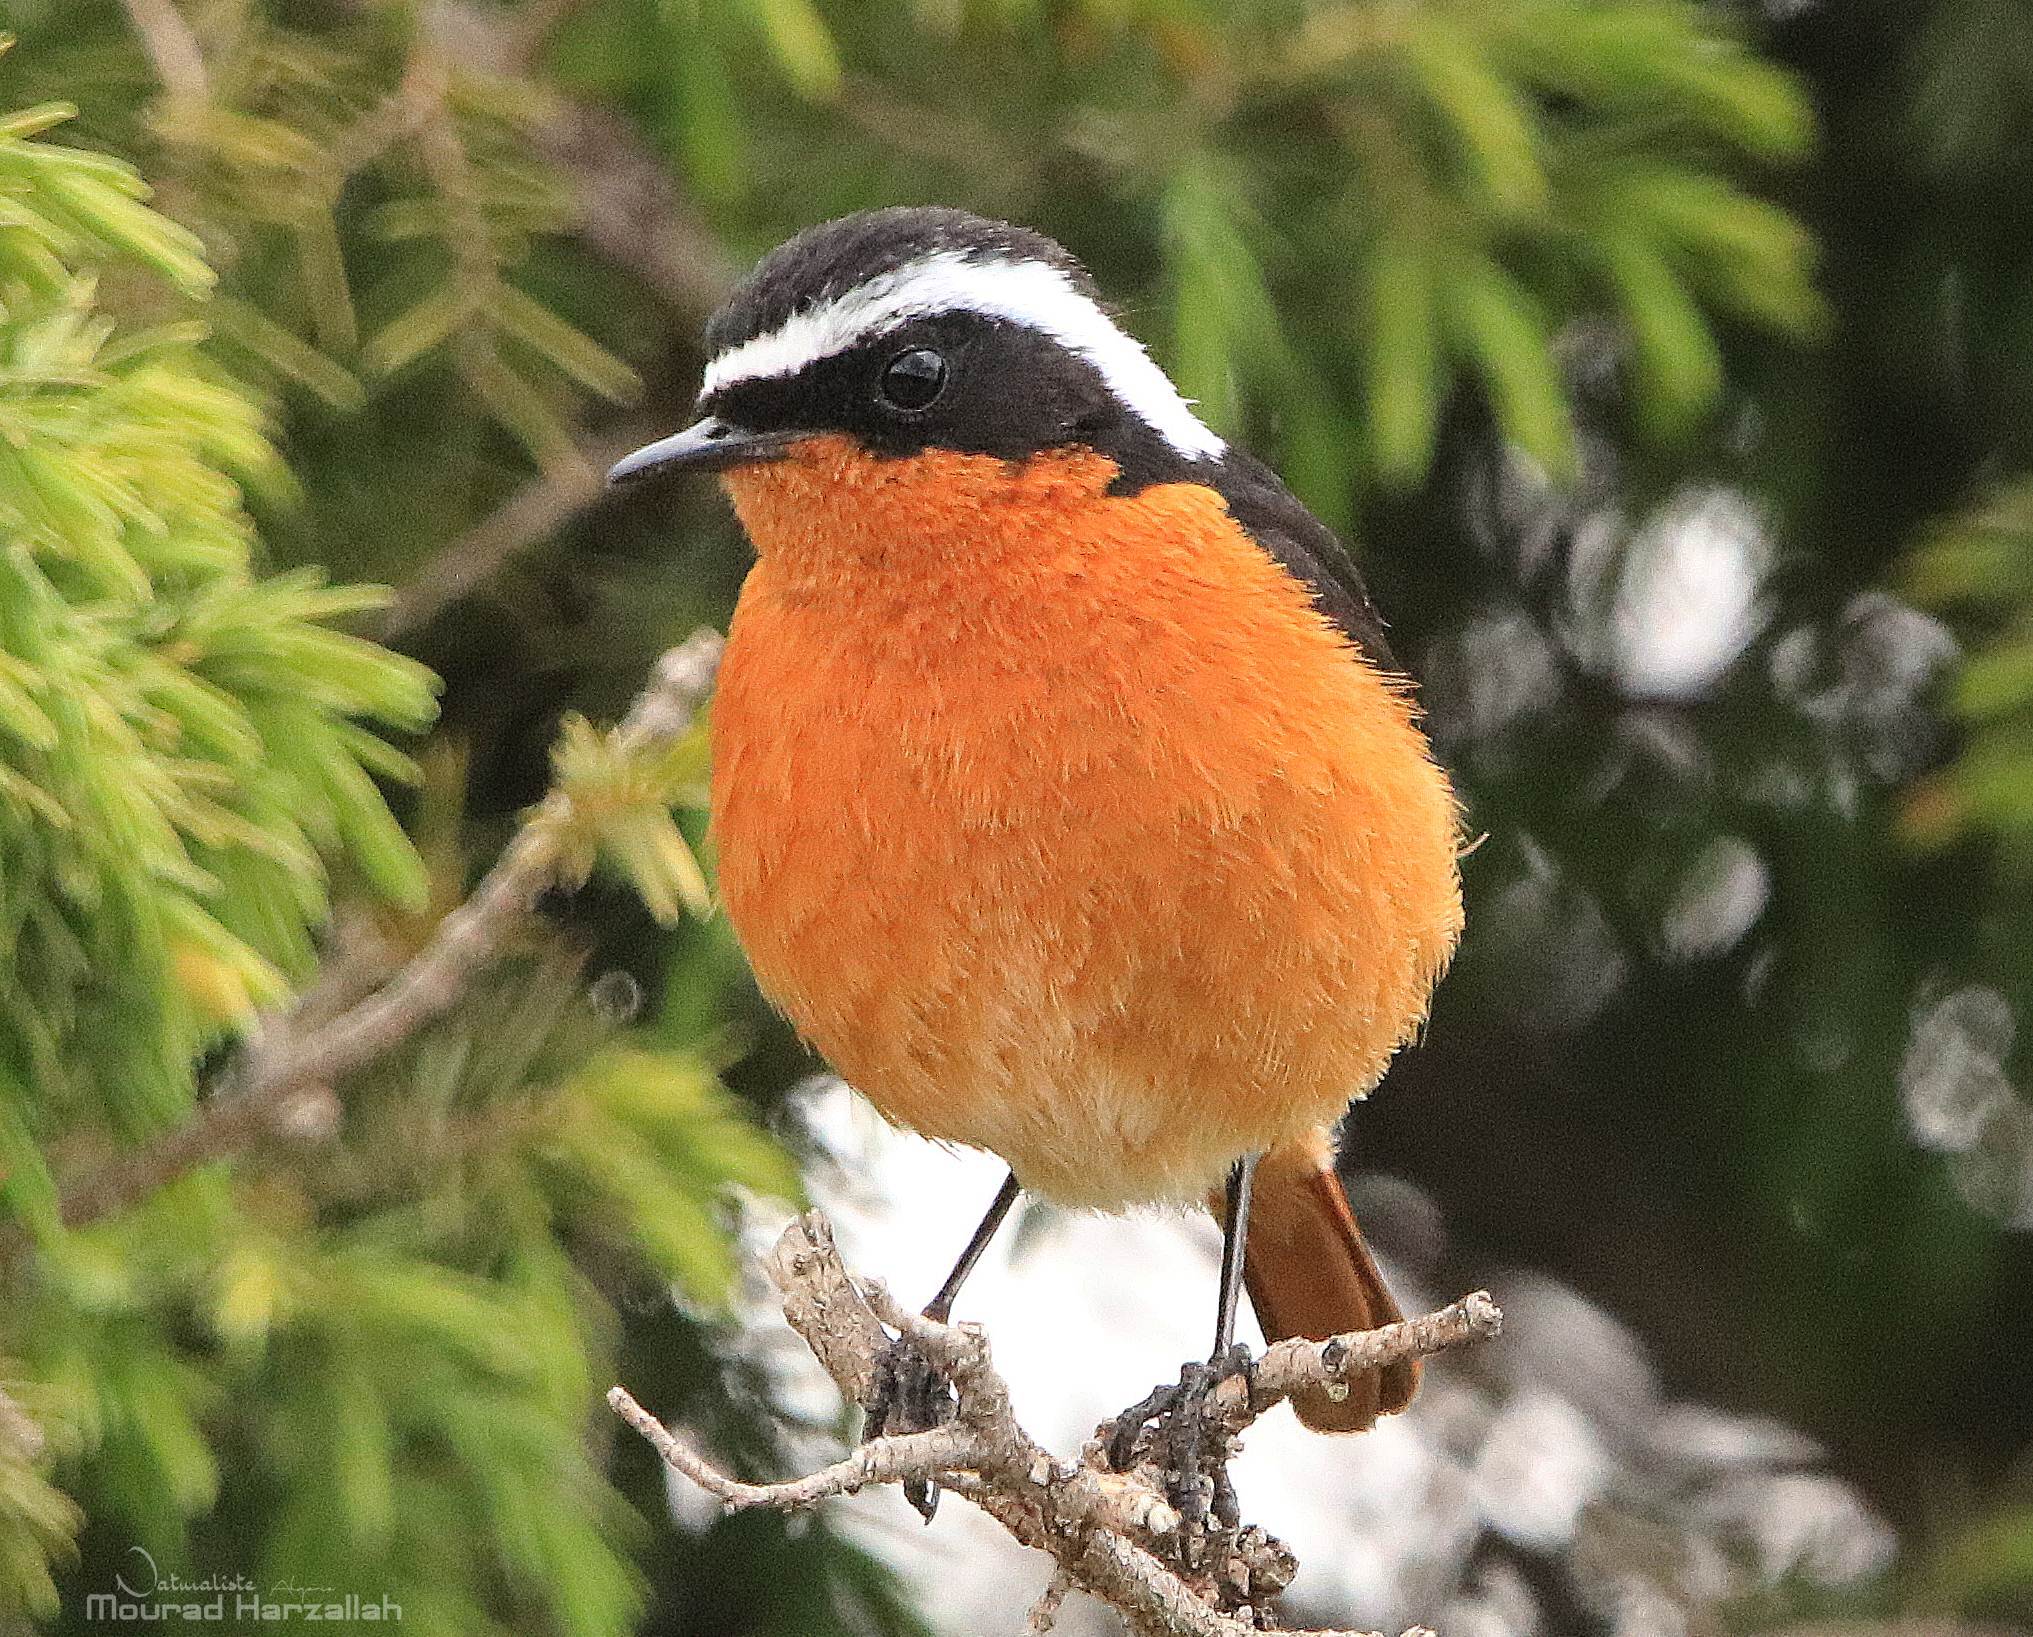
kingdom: Animalia
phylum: Chordata
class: Aves
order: Passeriformes
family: Muscicapidae
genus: Phoenicurus
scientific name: Phoenicurus moussieri
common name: Moussier's redstart
